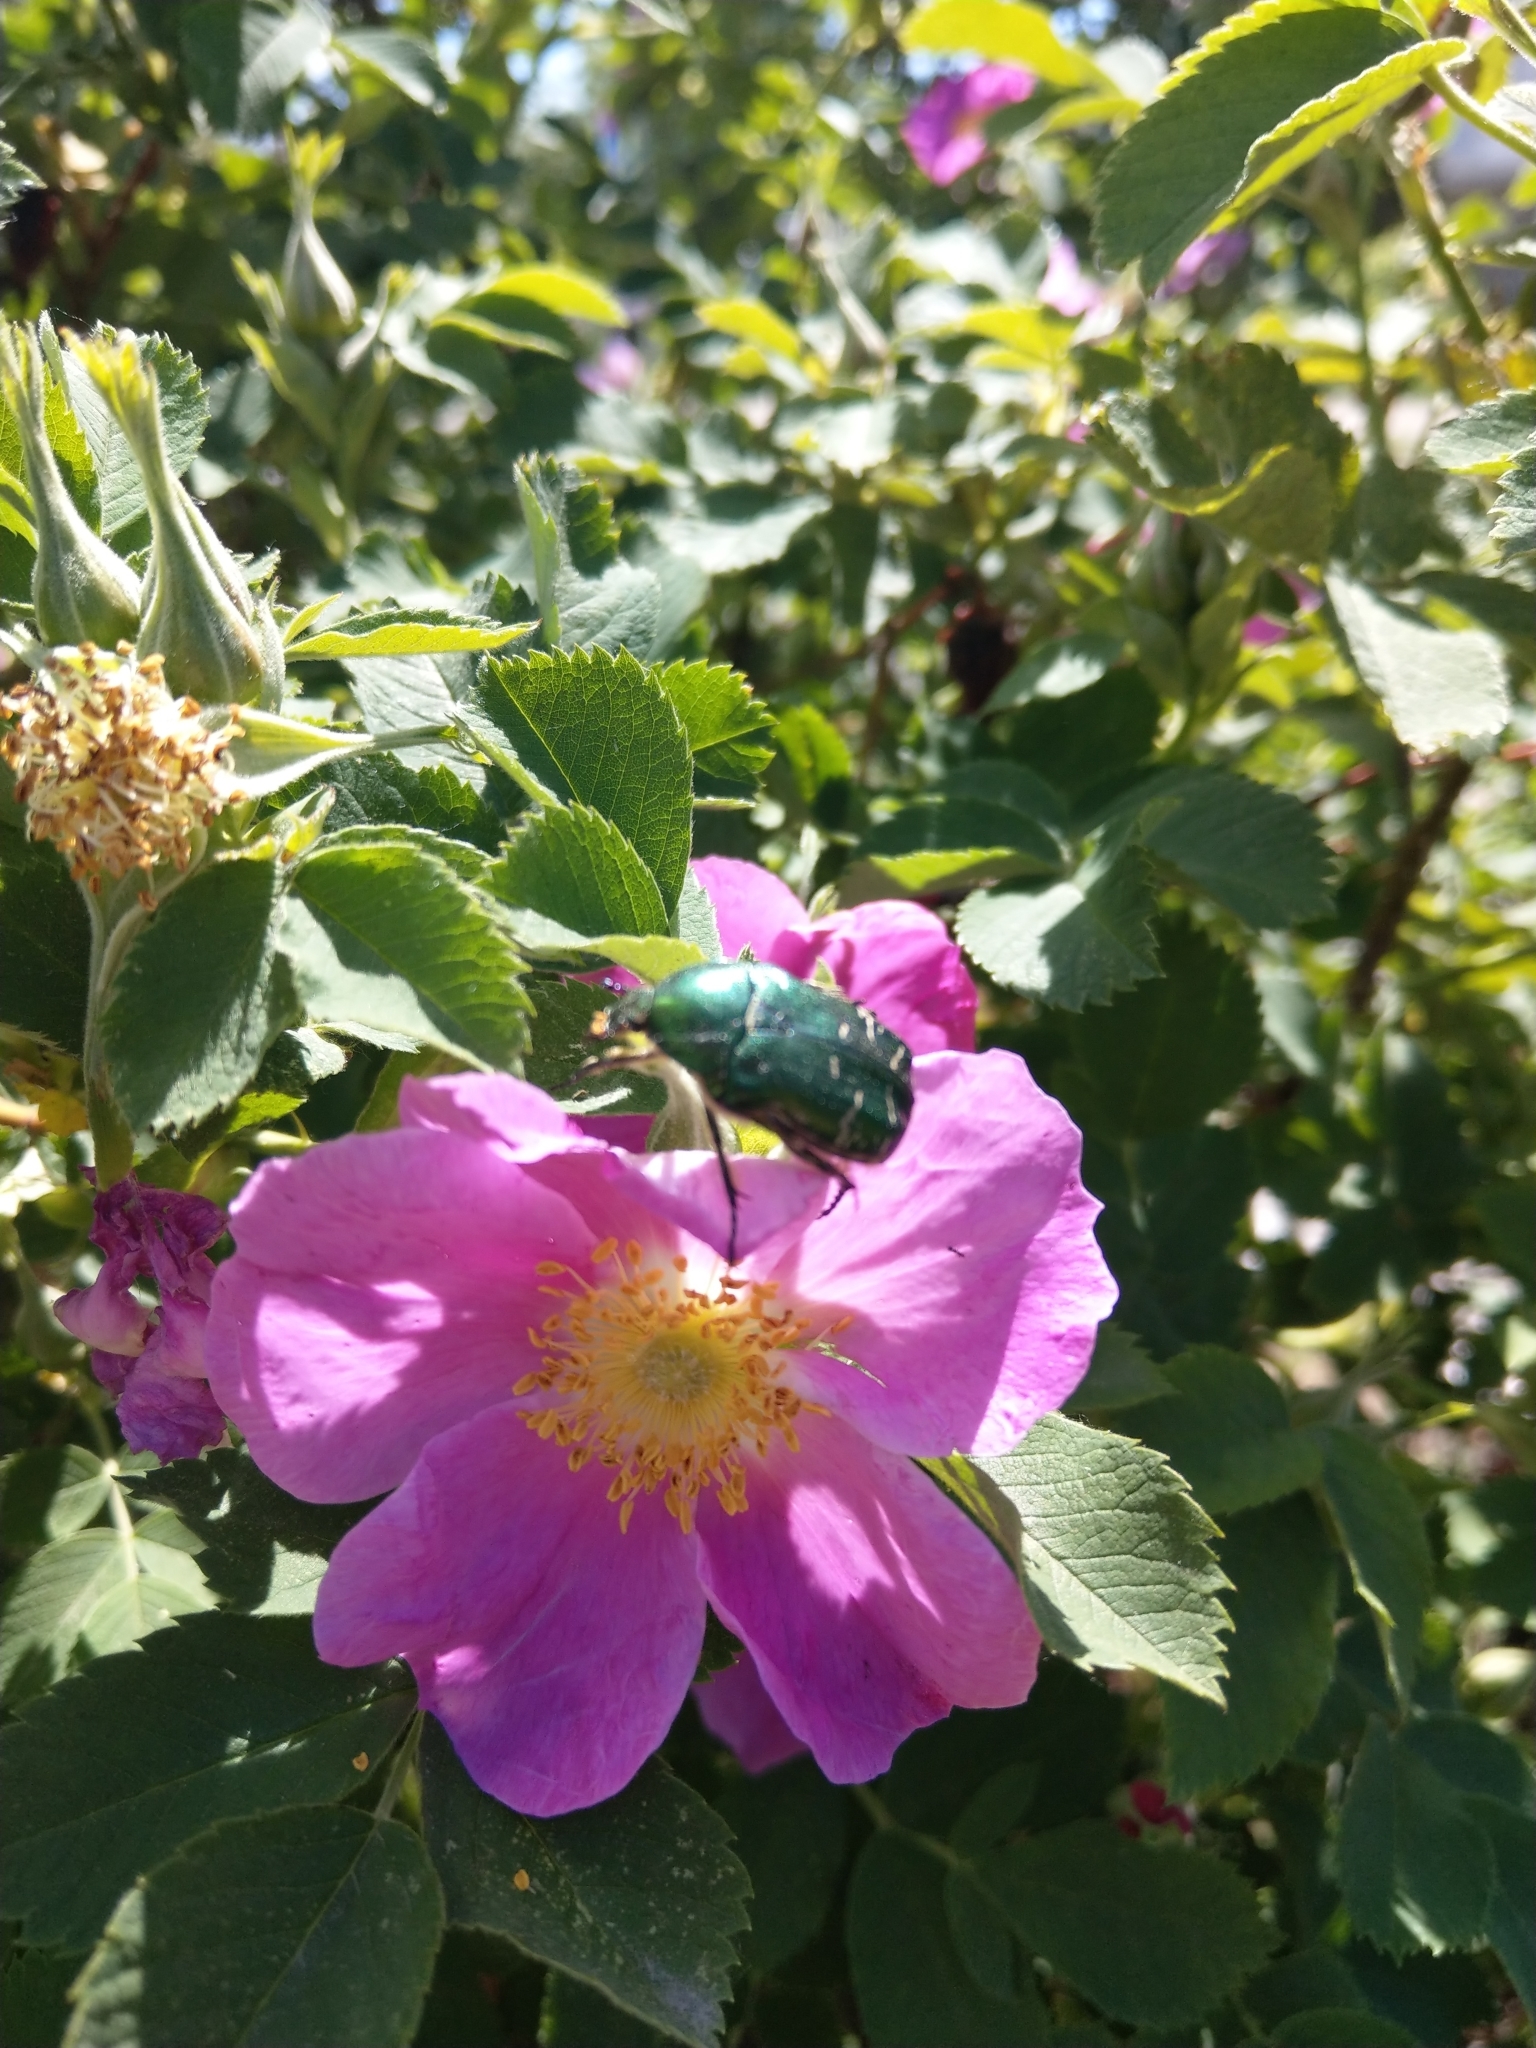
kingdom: Animalia
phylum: Arthropoda
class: Insecta
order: Coleoptera
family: Scarabaeidae
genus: Cetonia
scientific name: Cetonia aurata
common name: Rose chafer
